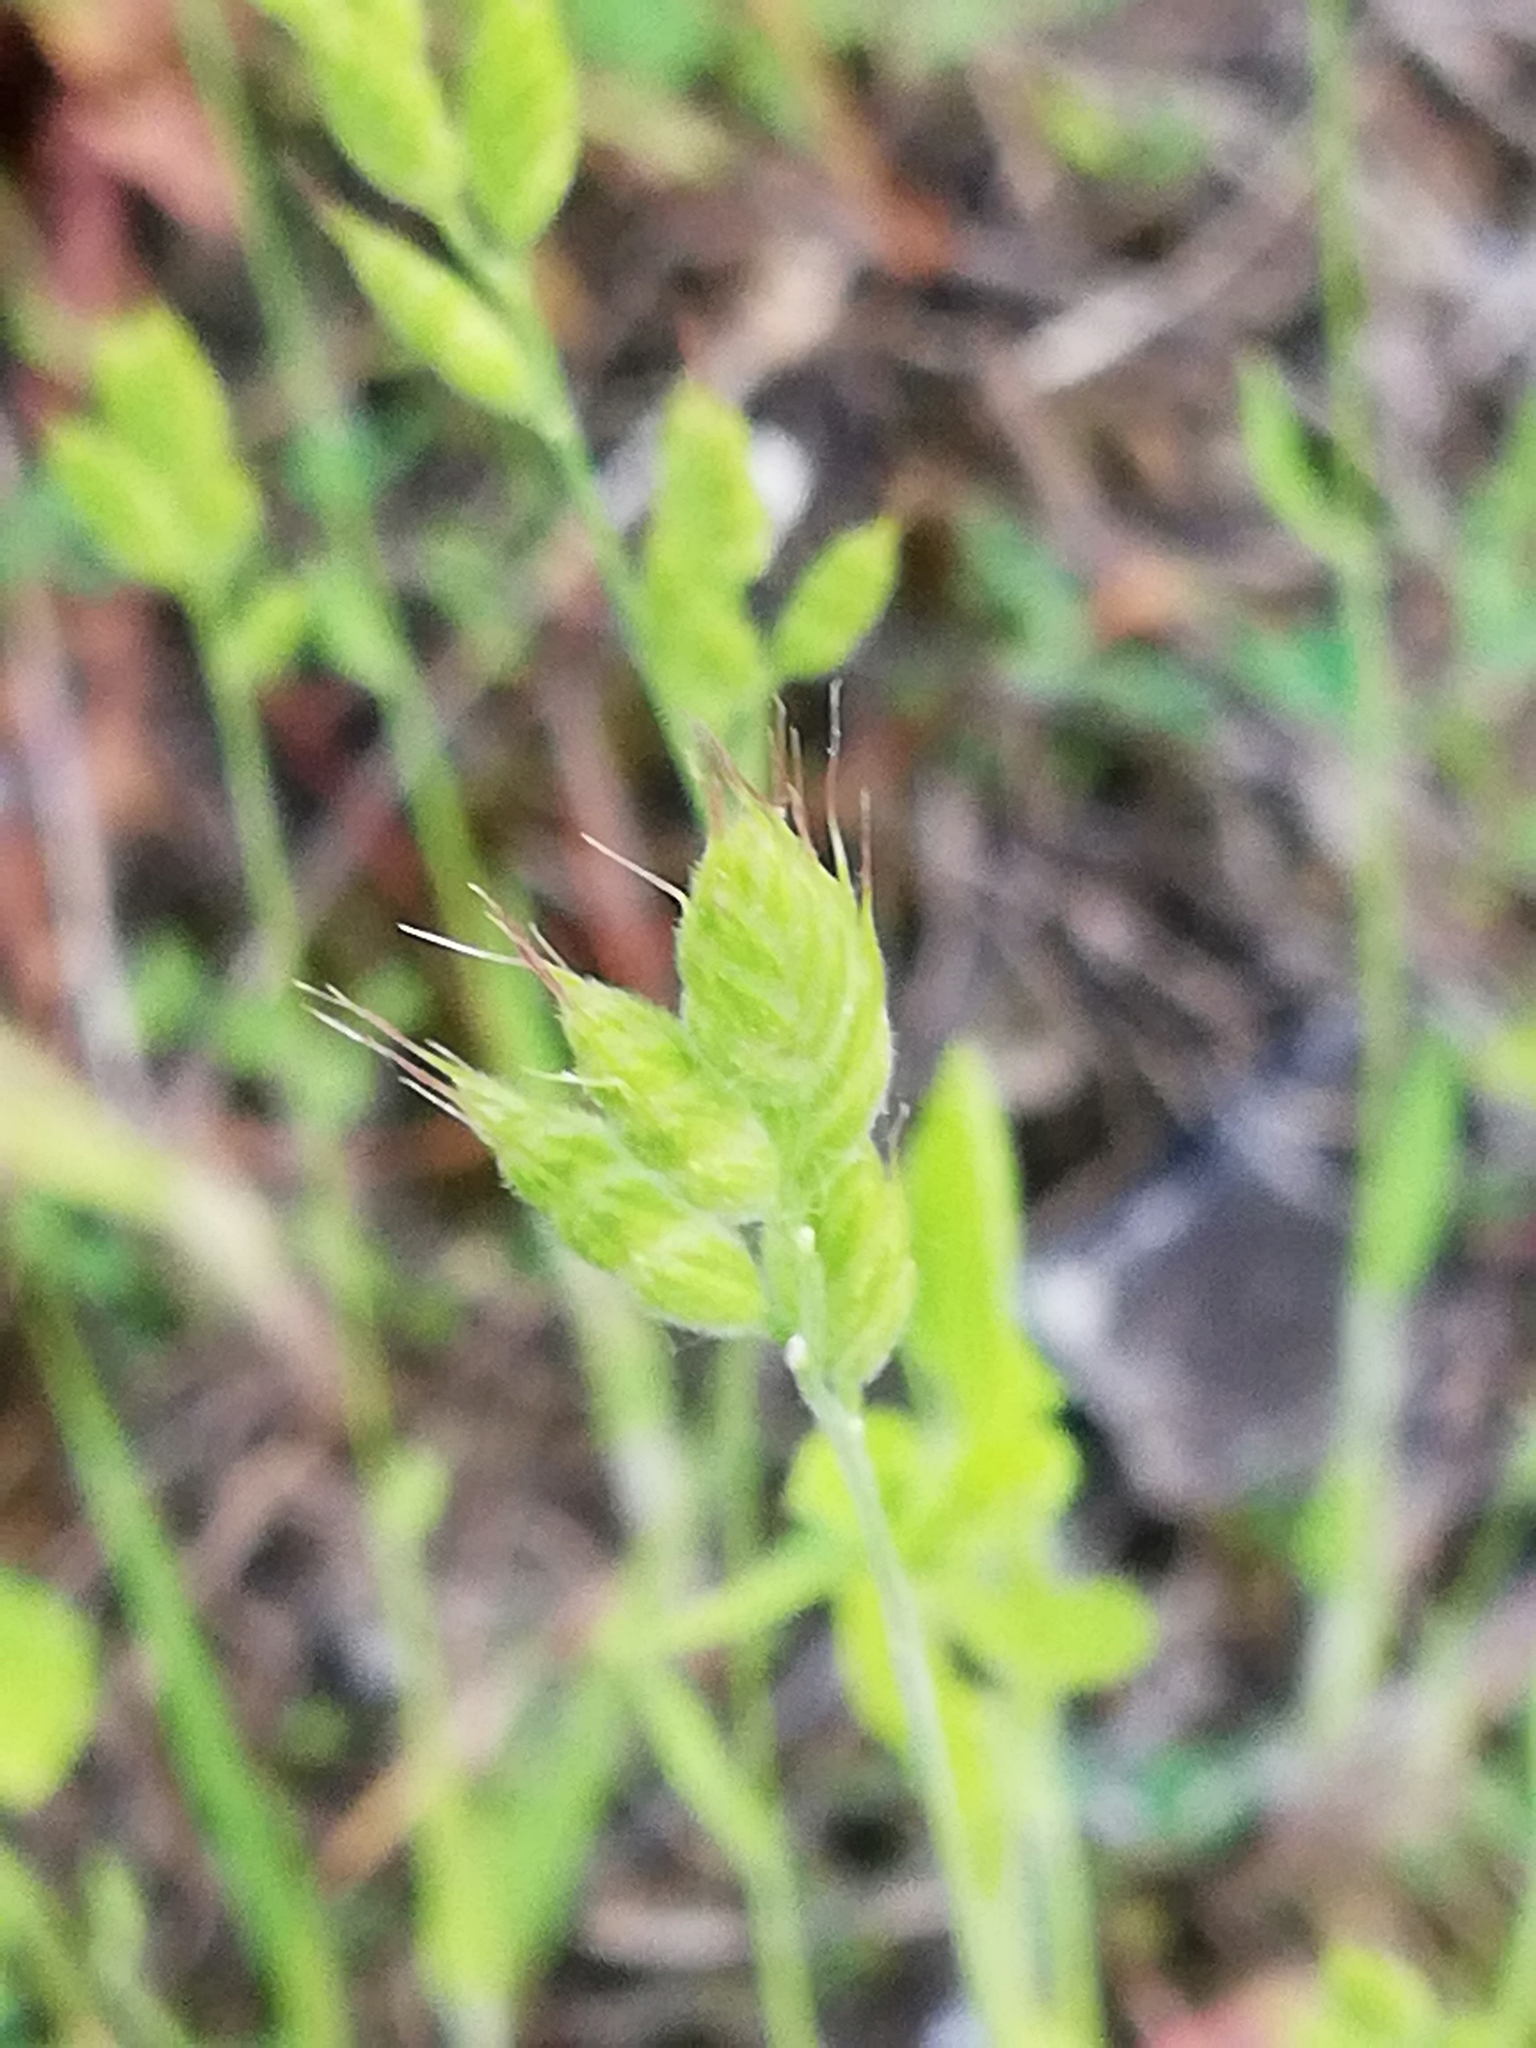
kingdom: Plantae
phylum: Tracheophyta
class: Liliopsida
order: Poales
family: Poaceae
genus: Bromus
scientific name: Bromus hordeaceus
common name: Soft brome
